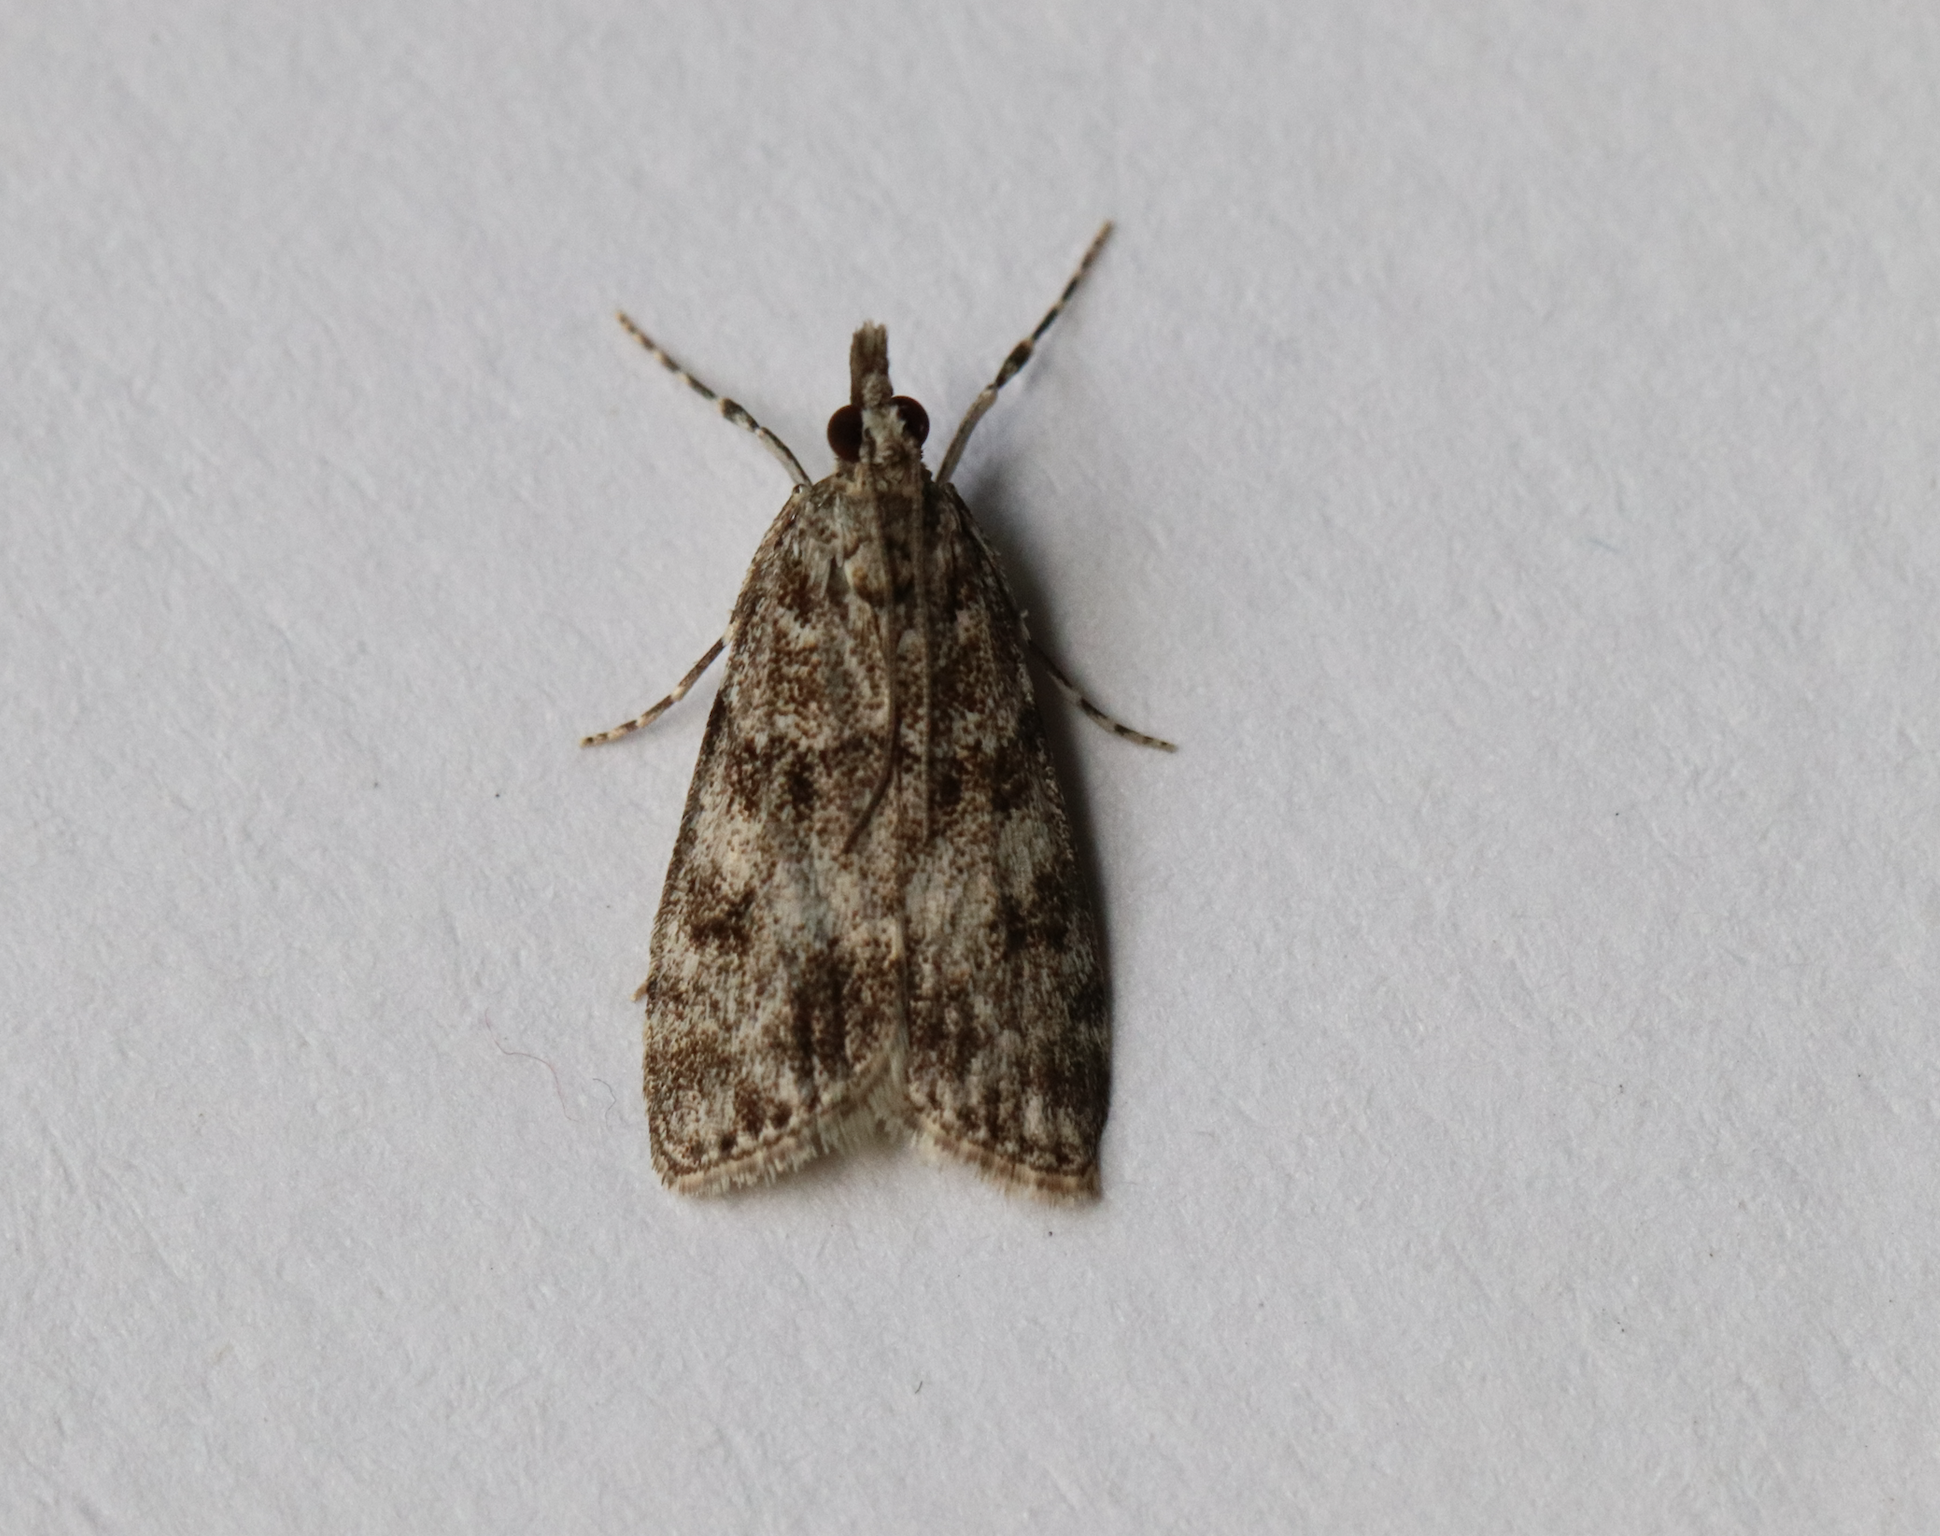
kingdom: Animalia
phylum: Arthropoda
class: Insecta
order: Lepidoptera
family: Crambidae
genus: Eudonia
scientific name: Eudonia mercurella
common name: Small grey
